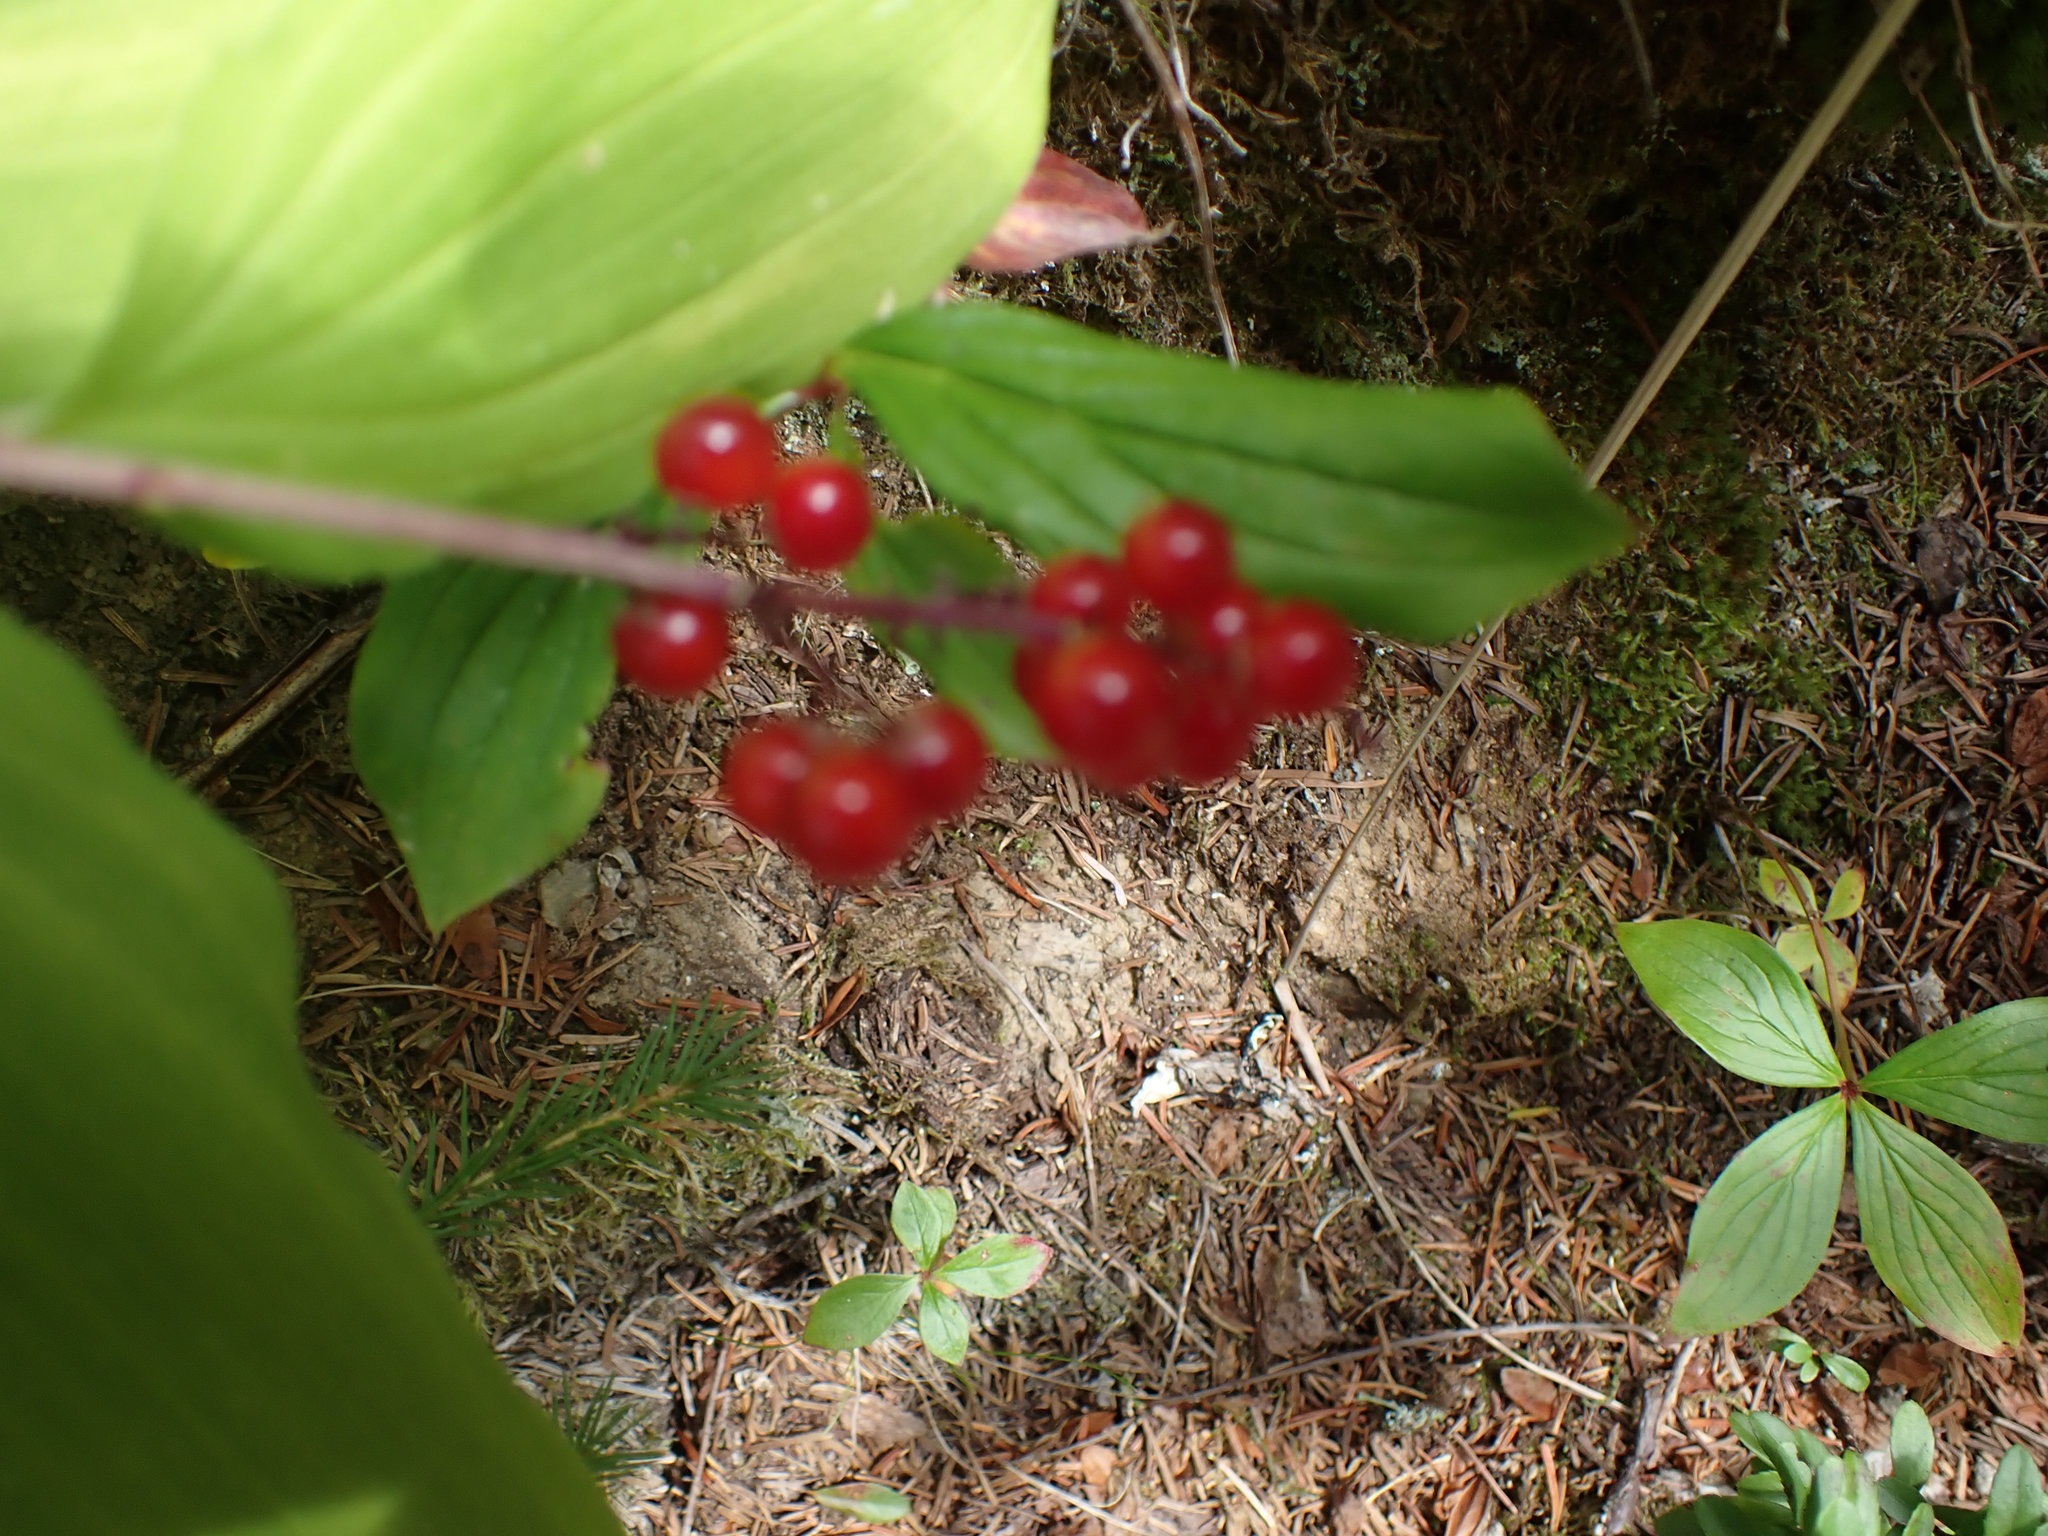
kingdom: Plantae
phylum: Tracheophyta
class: Liliopsida
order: Asparagales
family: Asparagaceae
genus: Maianthemum
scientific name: Maianthemum racemosum
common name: False spikenard
